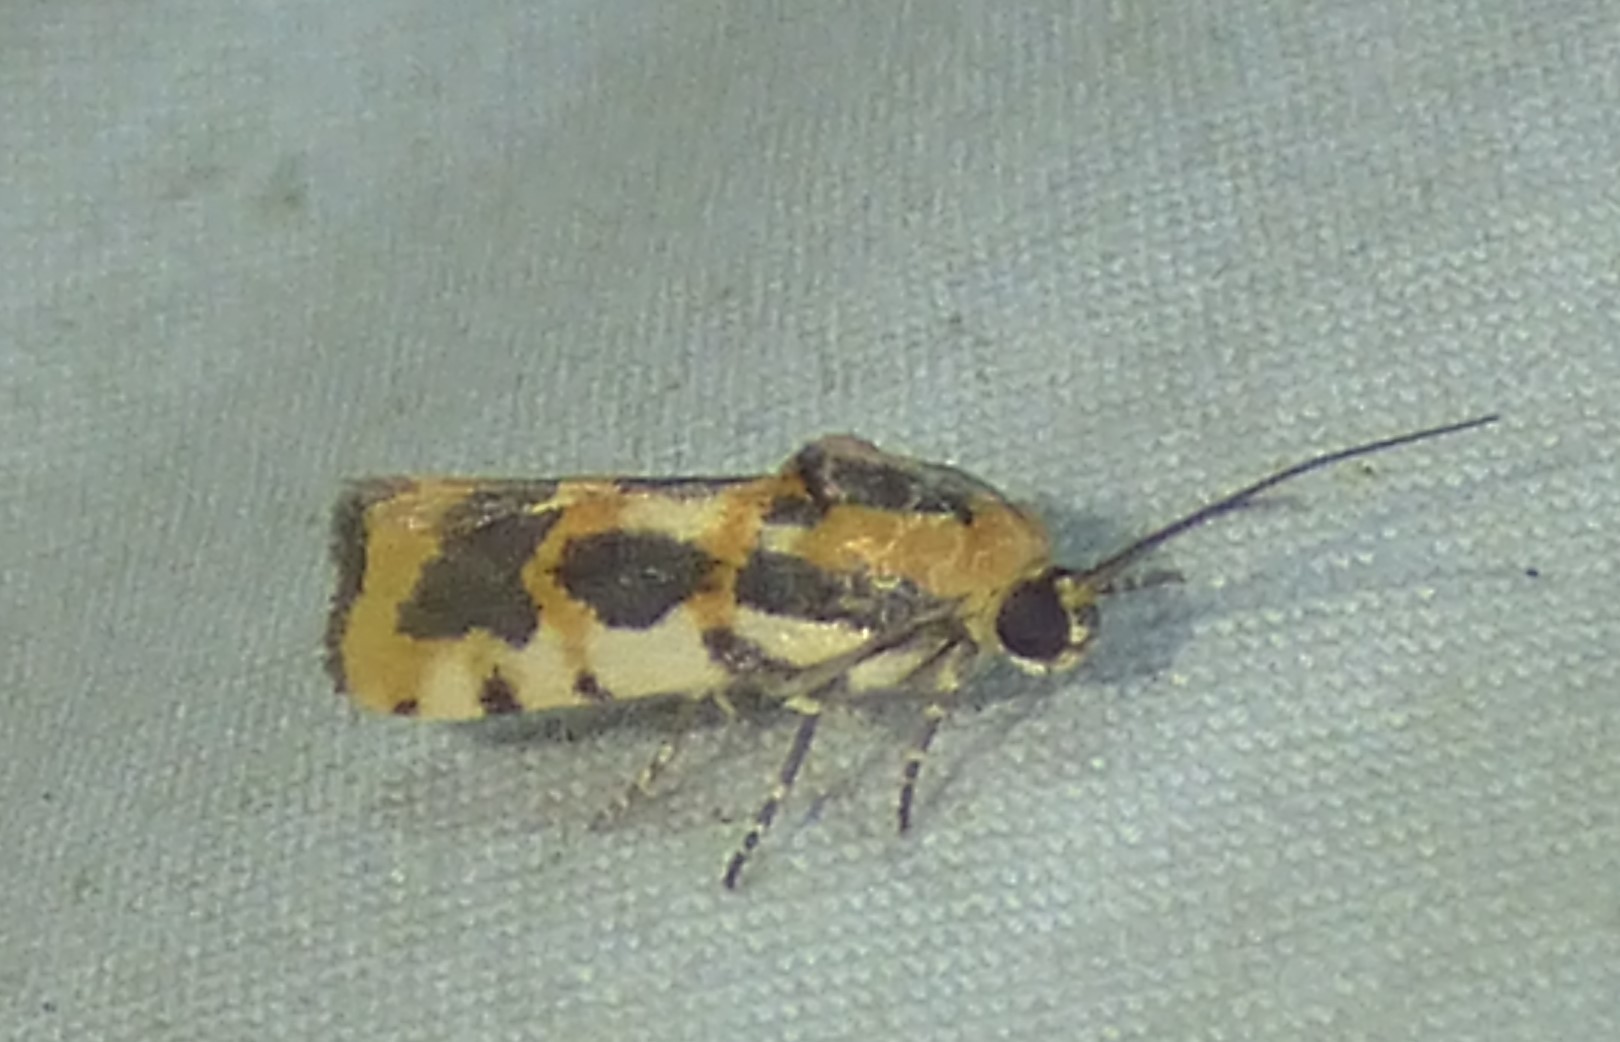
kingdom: Animalia
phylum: Arthropoda
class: Insecta
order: Lepidoptera
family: Noctuidae
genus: Acontia
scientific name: Acontia leo
